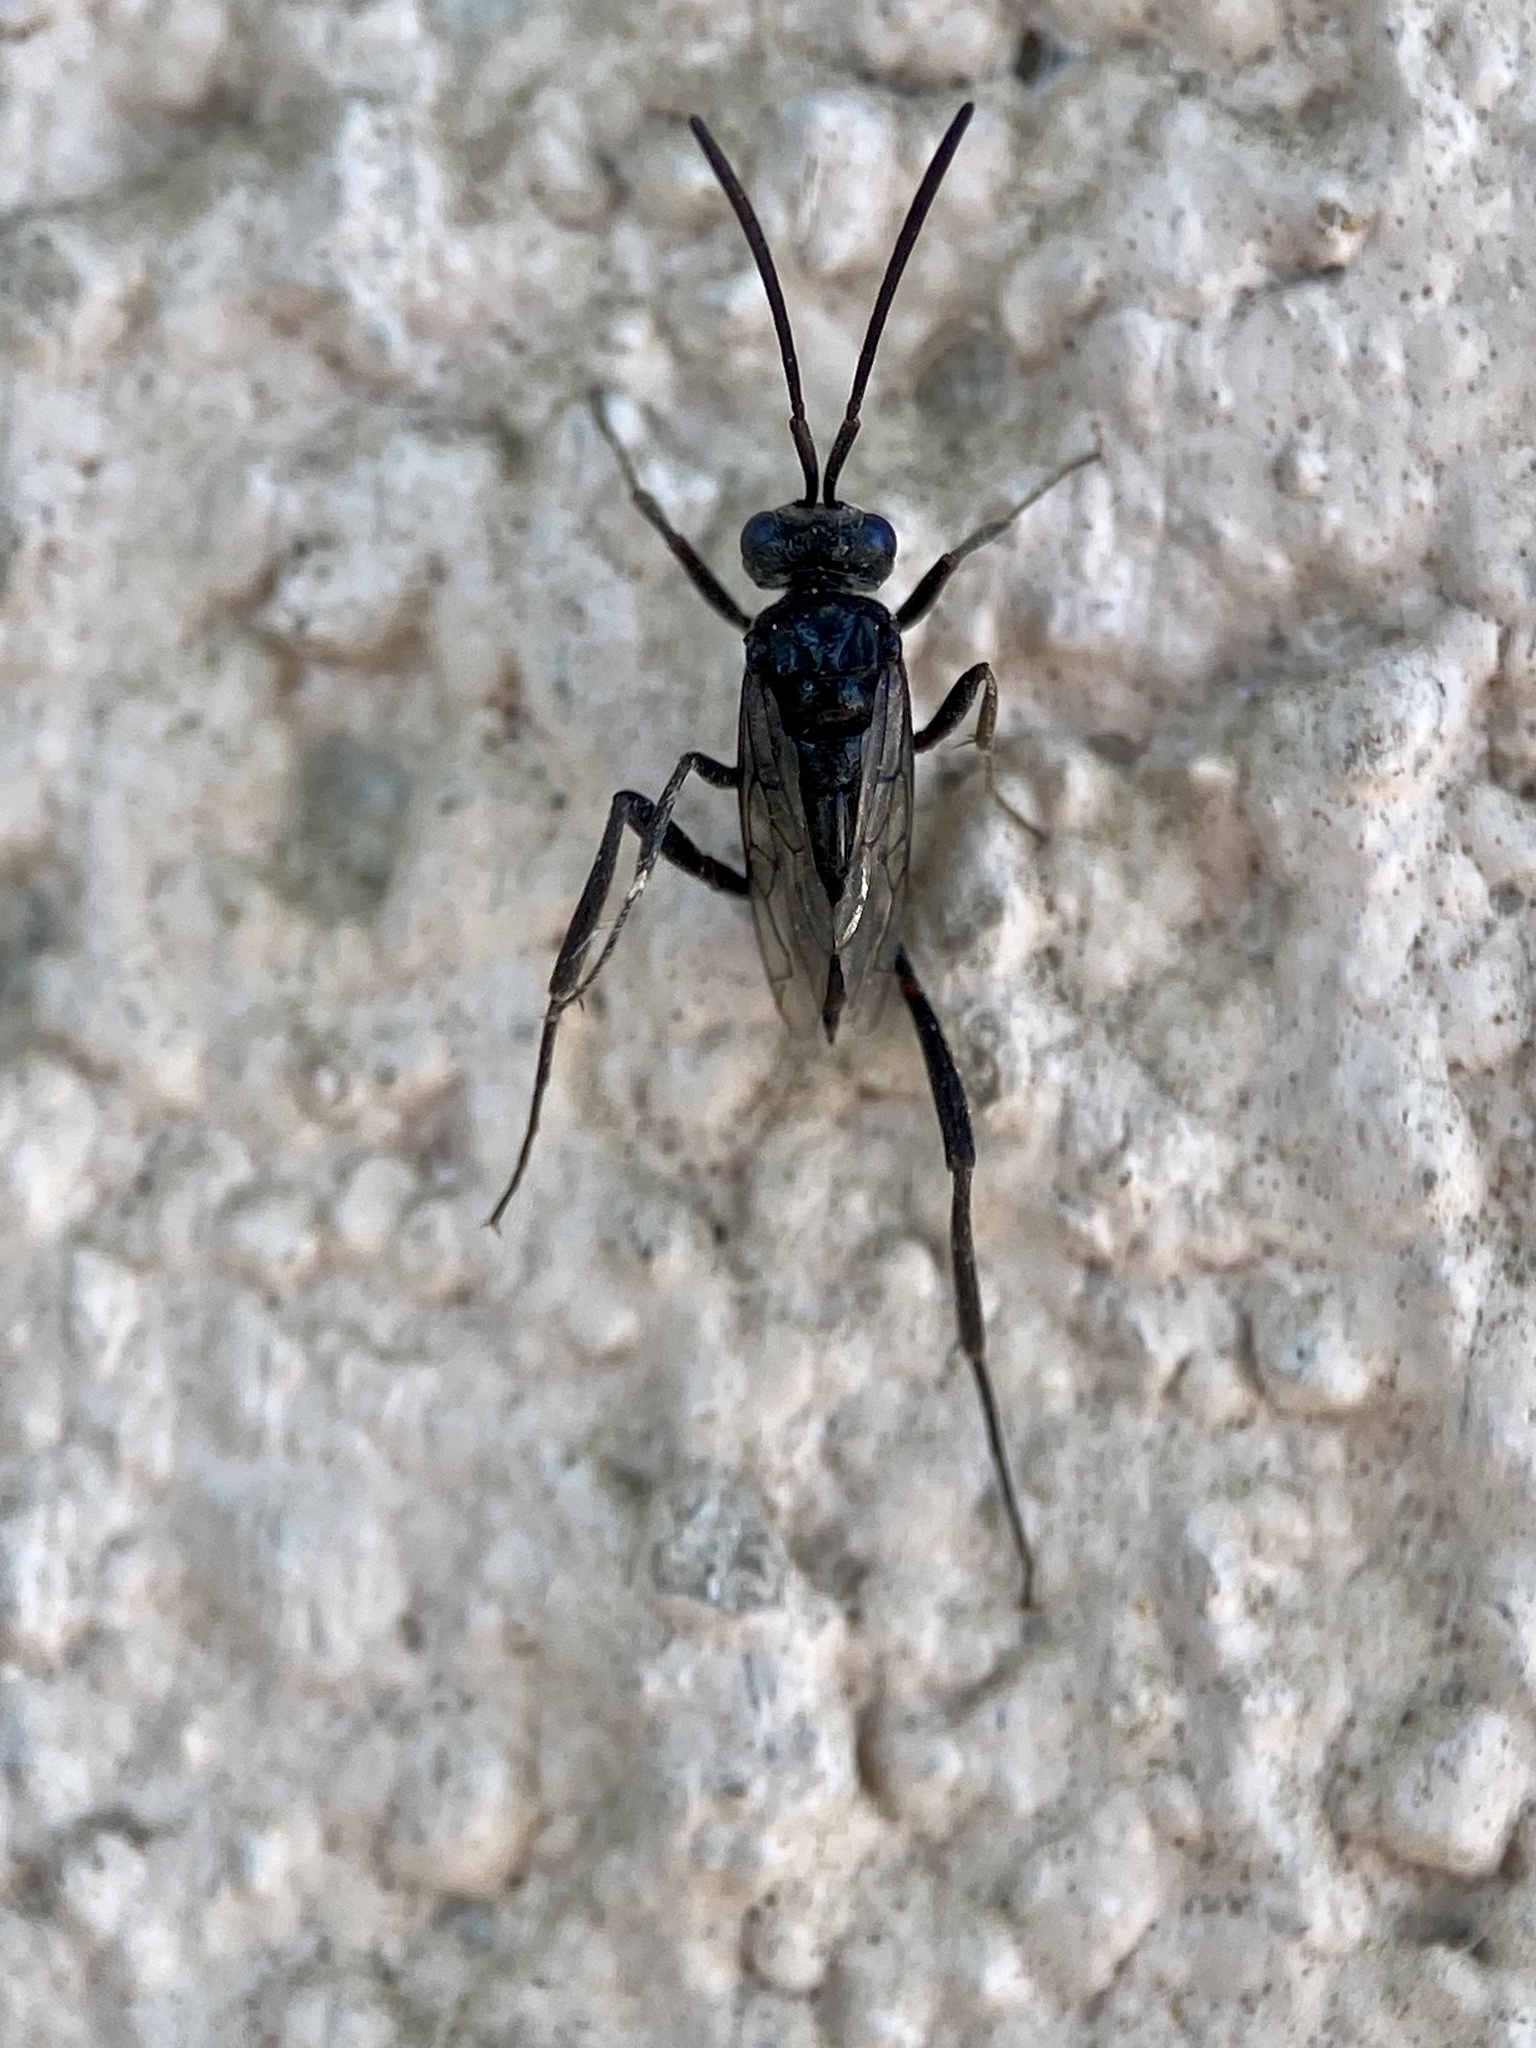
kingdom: Animalia
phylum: Arthropoda
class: Insecta
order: Hymenoptera
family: Evaniidae
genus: Evania
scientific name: Evania appendigaster
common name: Ensign wasp
